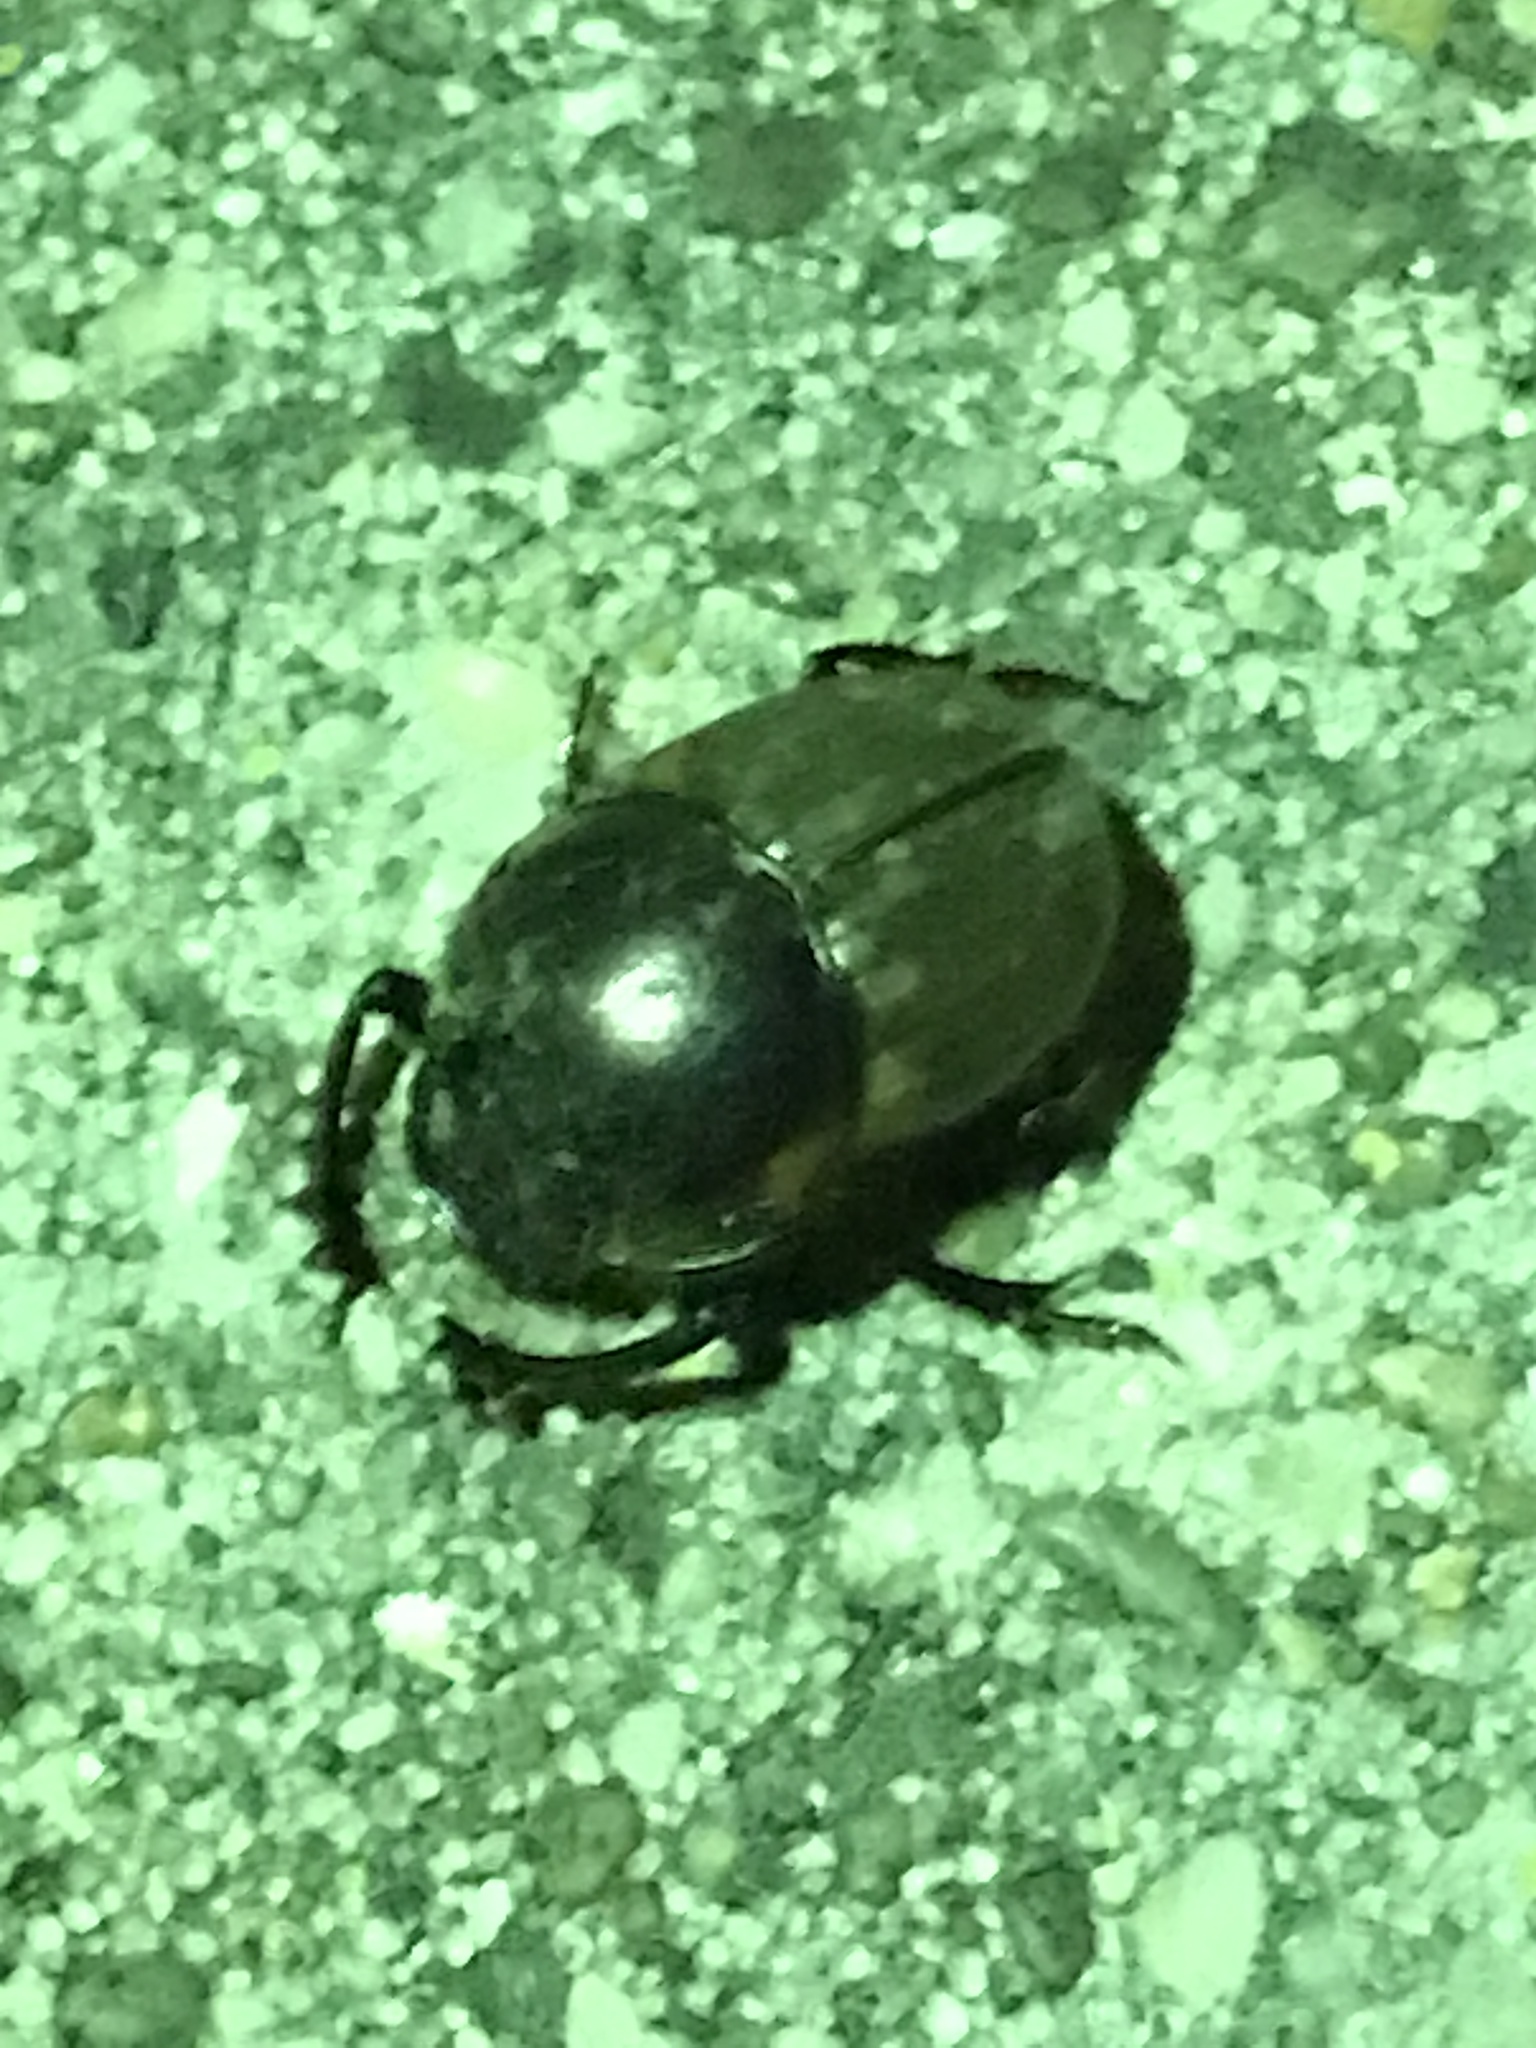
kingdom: Animalia
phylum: Arthropoda
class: Insecta
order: Coleoptera
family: Scarabaeidae
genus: Digitonthophagus
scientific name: Digitonthophagus gazella
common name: Brown dung beetle
